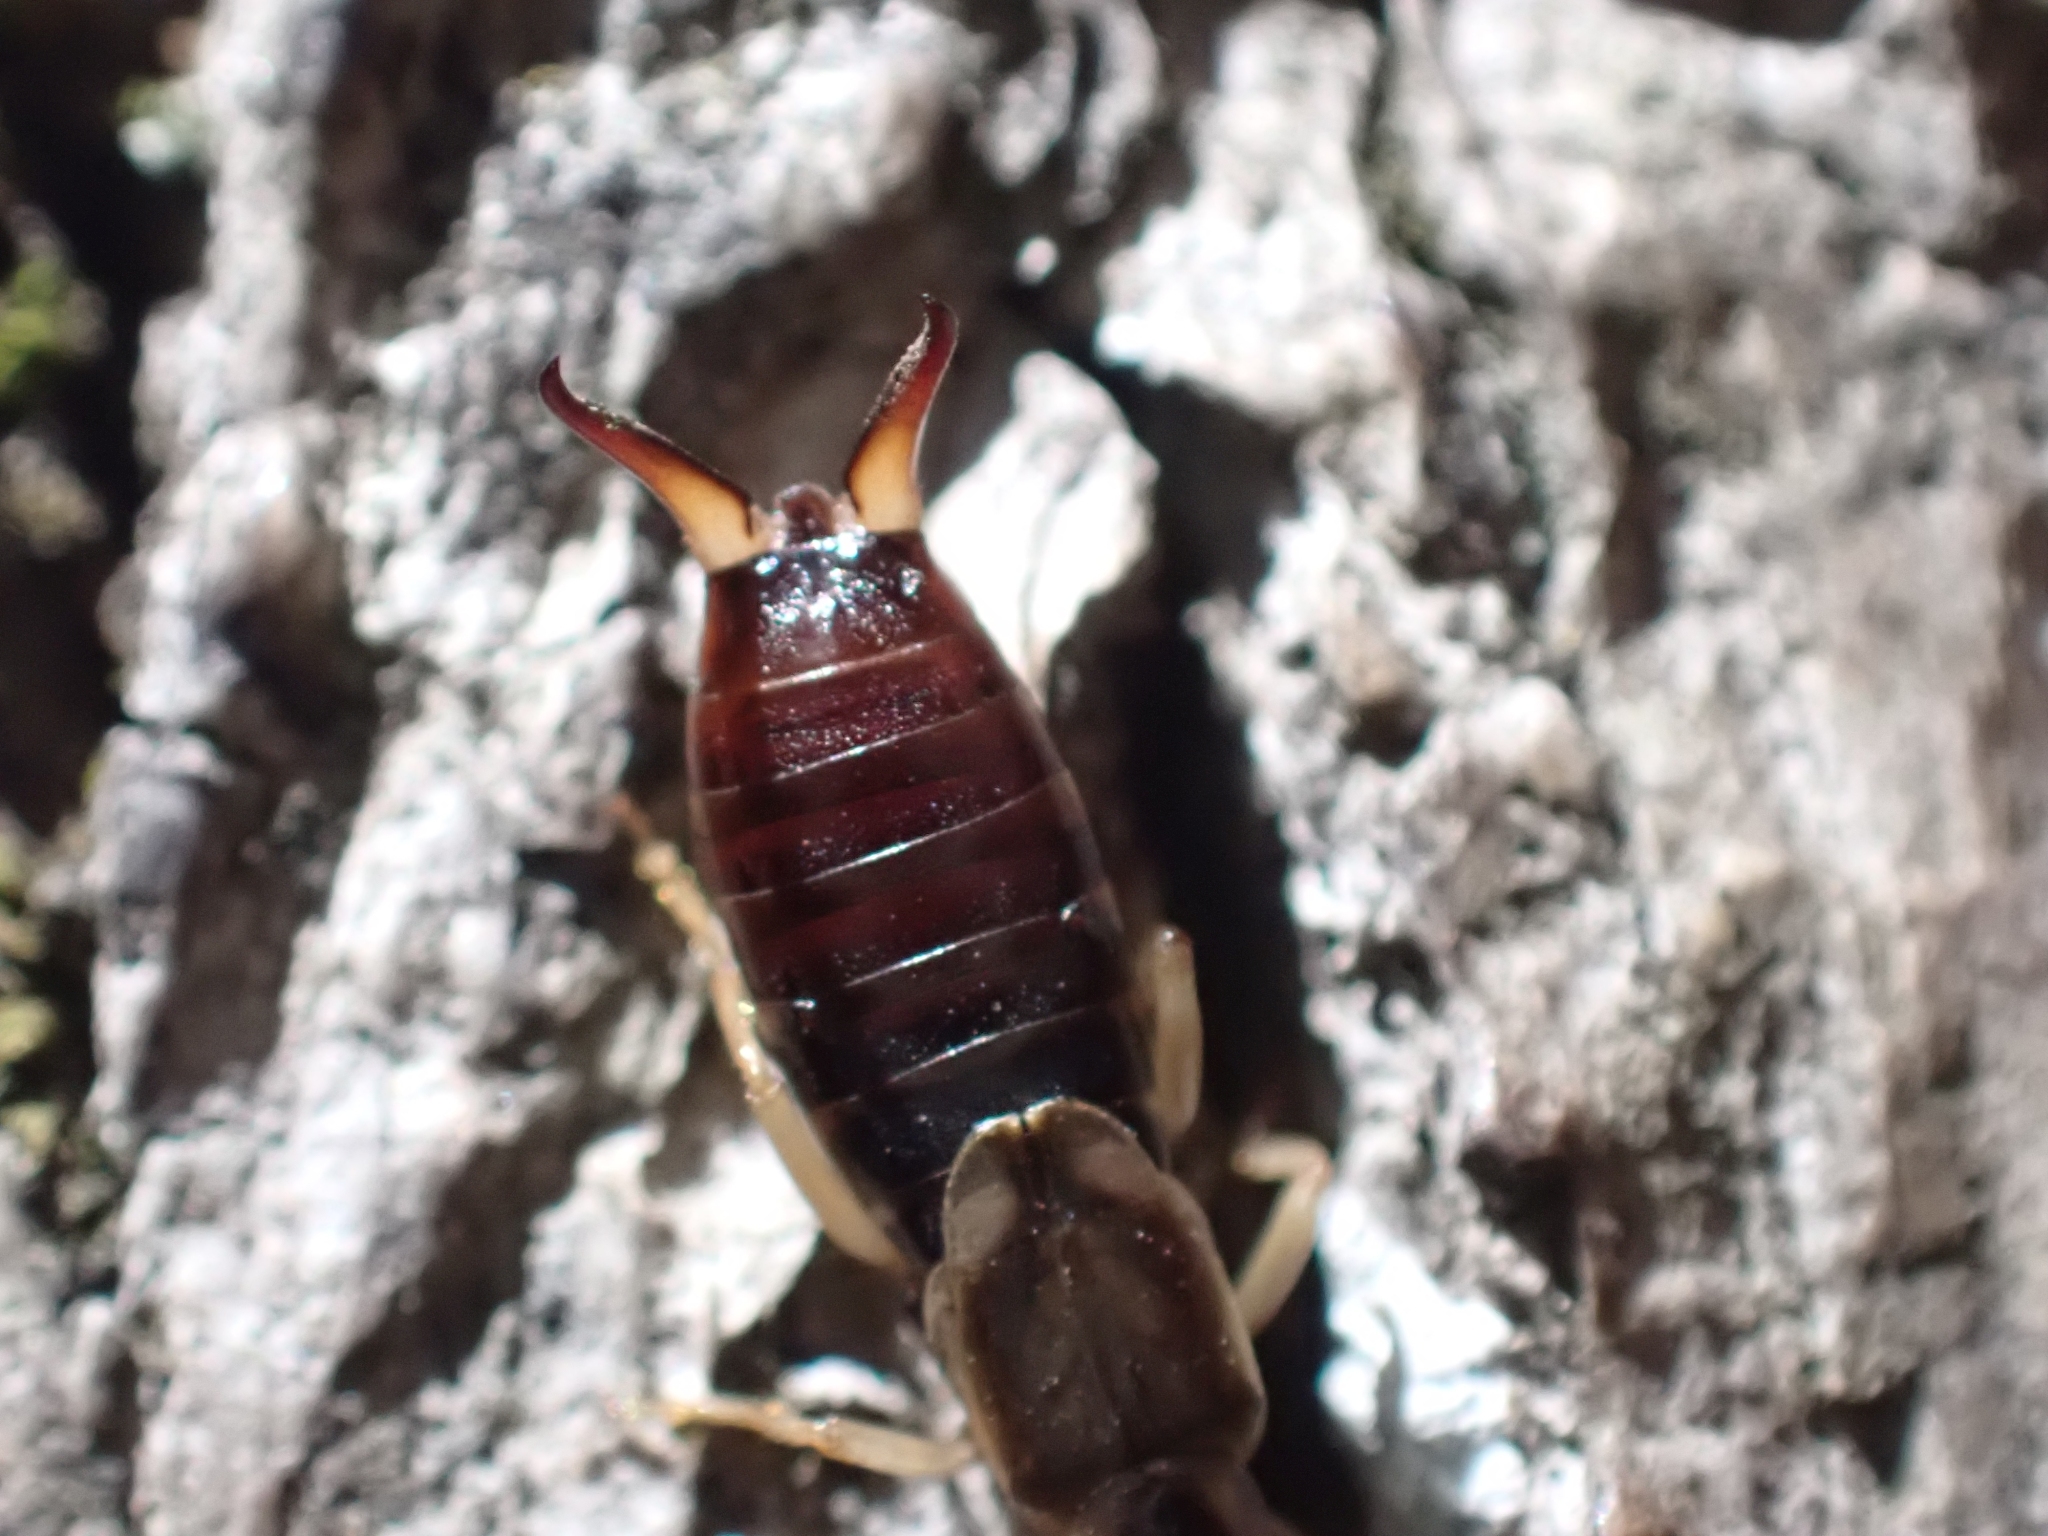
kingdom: Animalia
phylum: Arthropoda
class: Insecta
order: Dermaptera
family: Forficulidae
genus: Forficula
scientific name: Forficula
